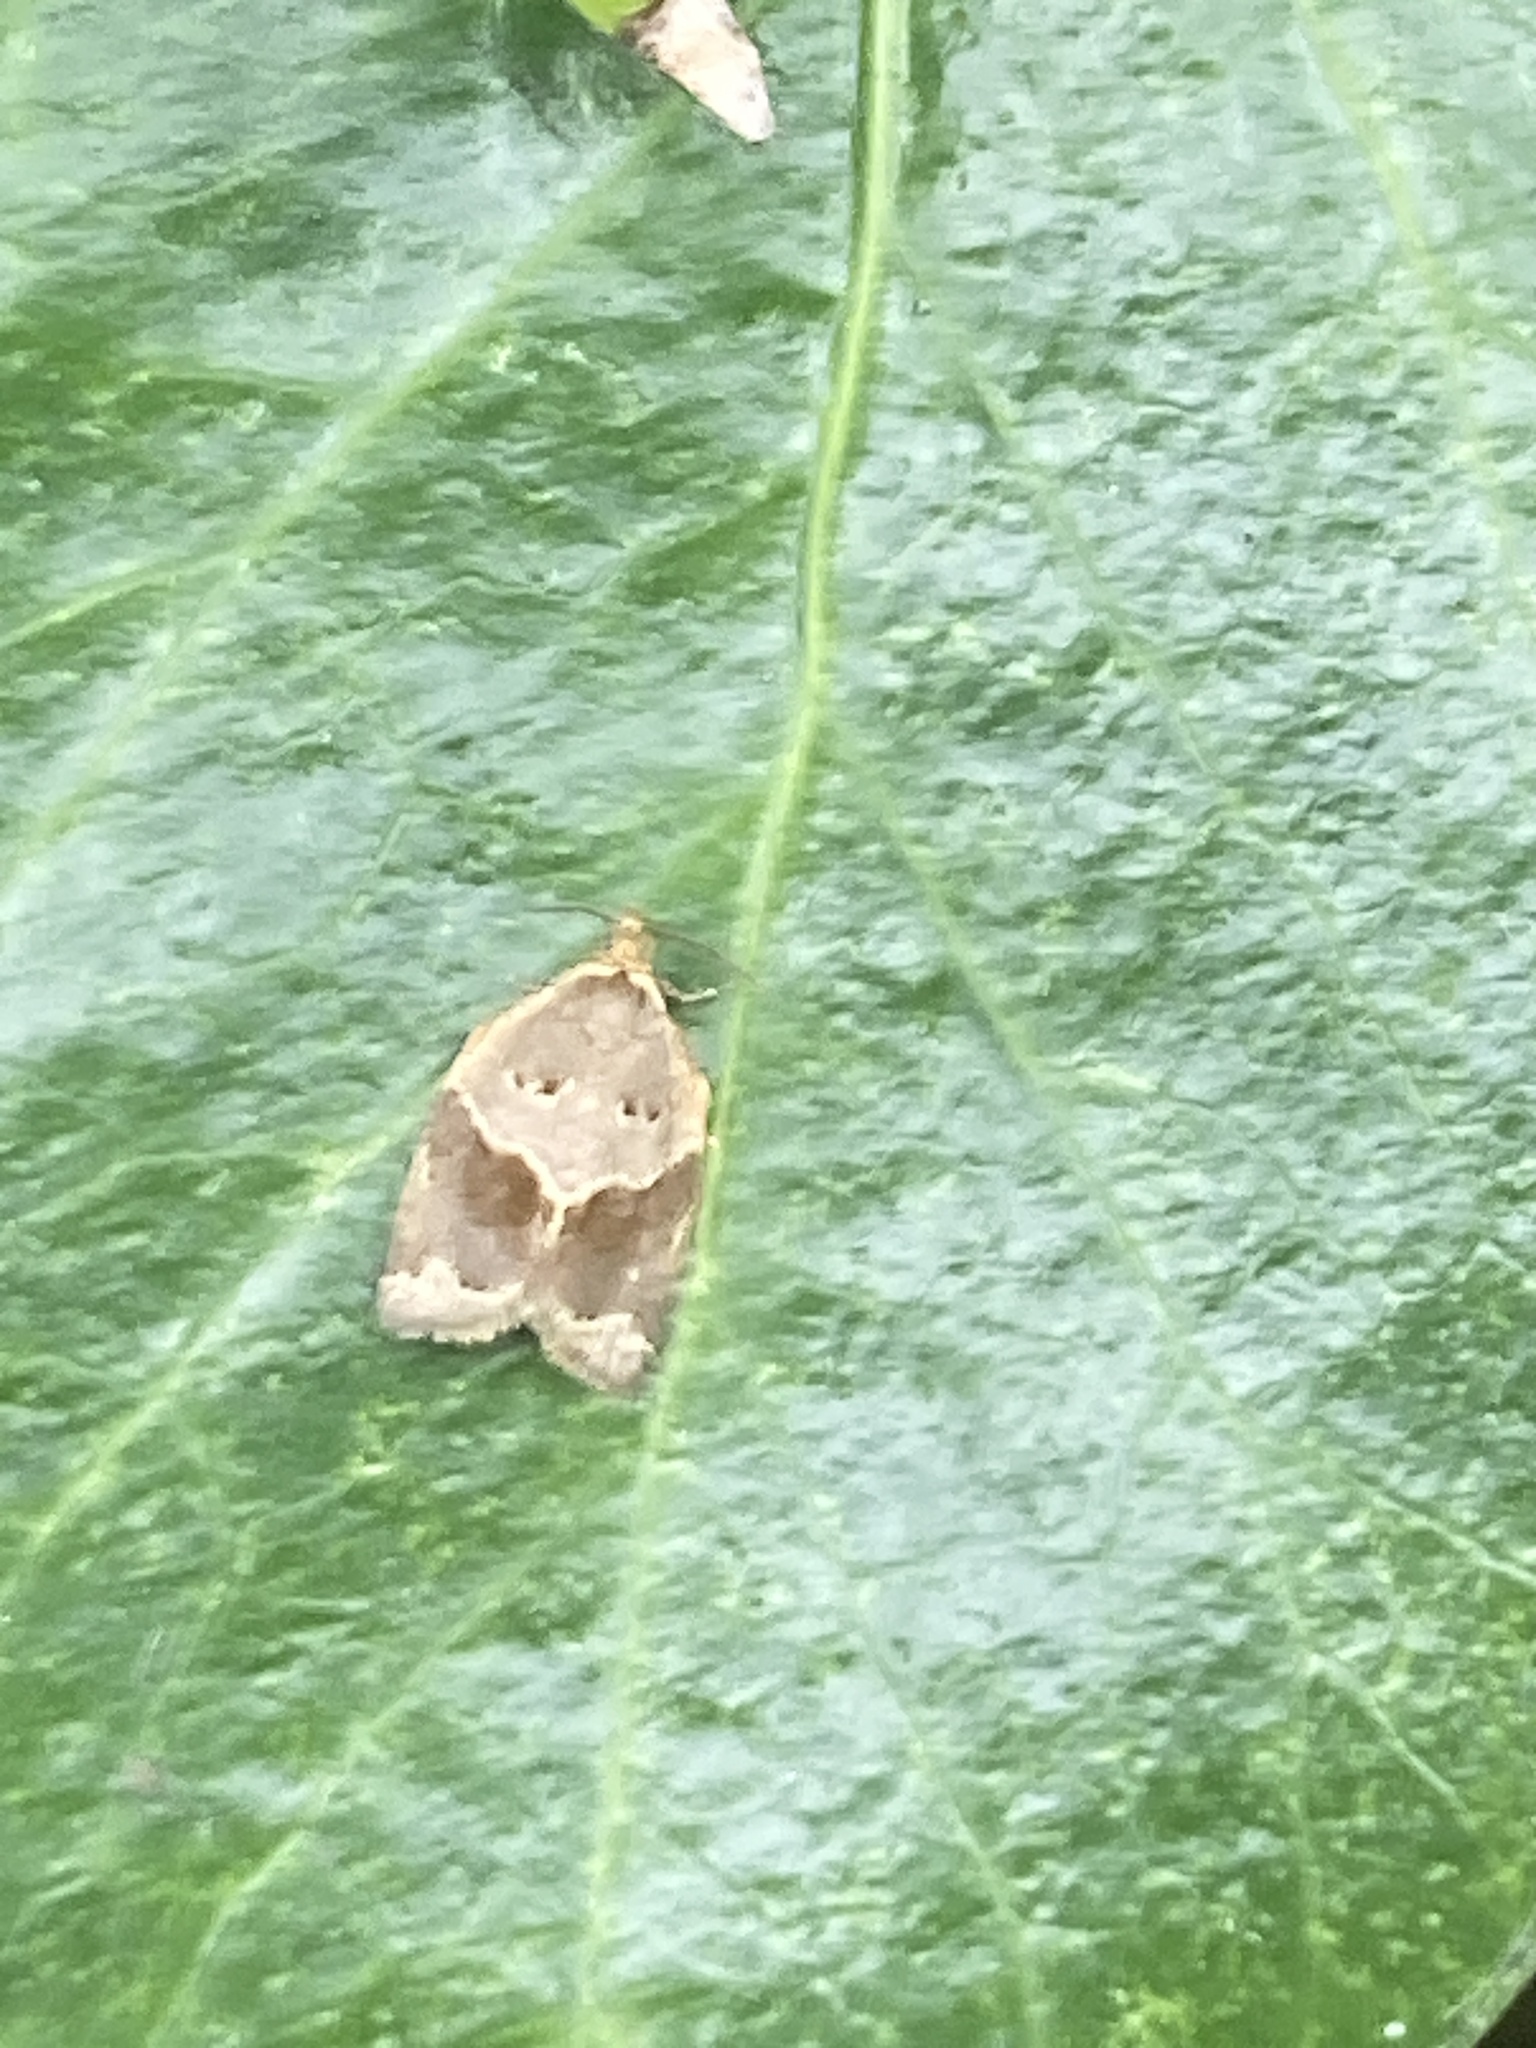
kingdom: Animalia
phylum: Arthropoda
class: Insecta
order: Lepidoptera
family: Tortricidae
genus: Clepsis
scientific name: Clepsis dumicolana
